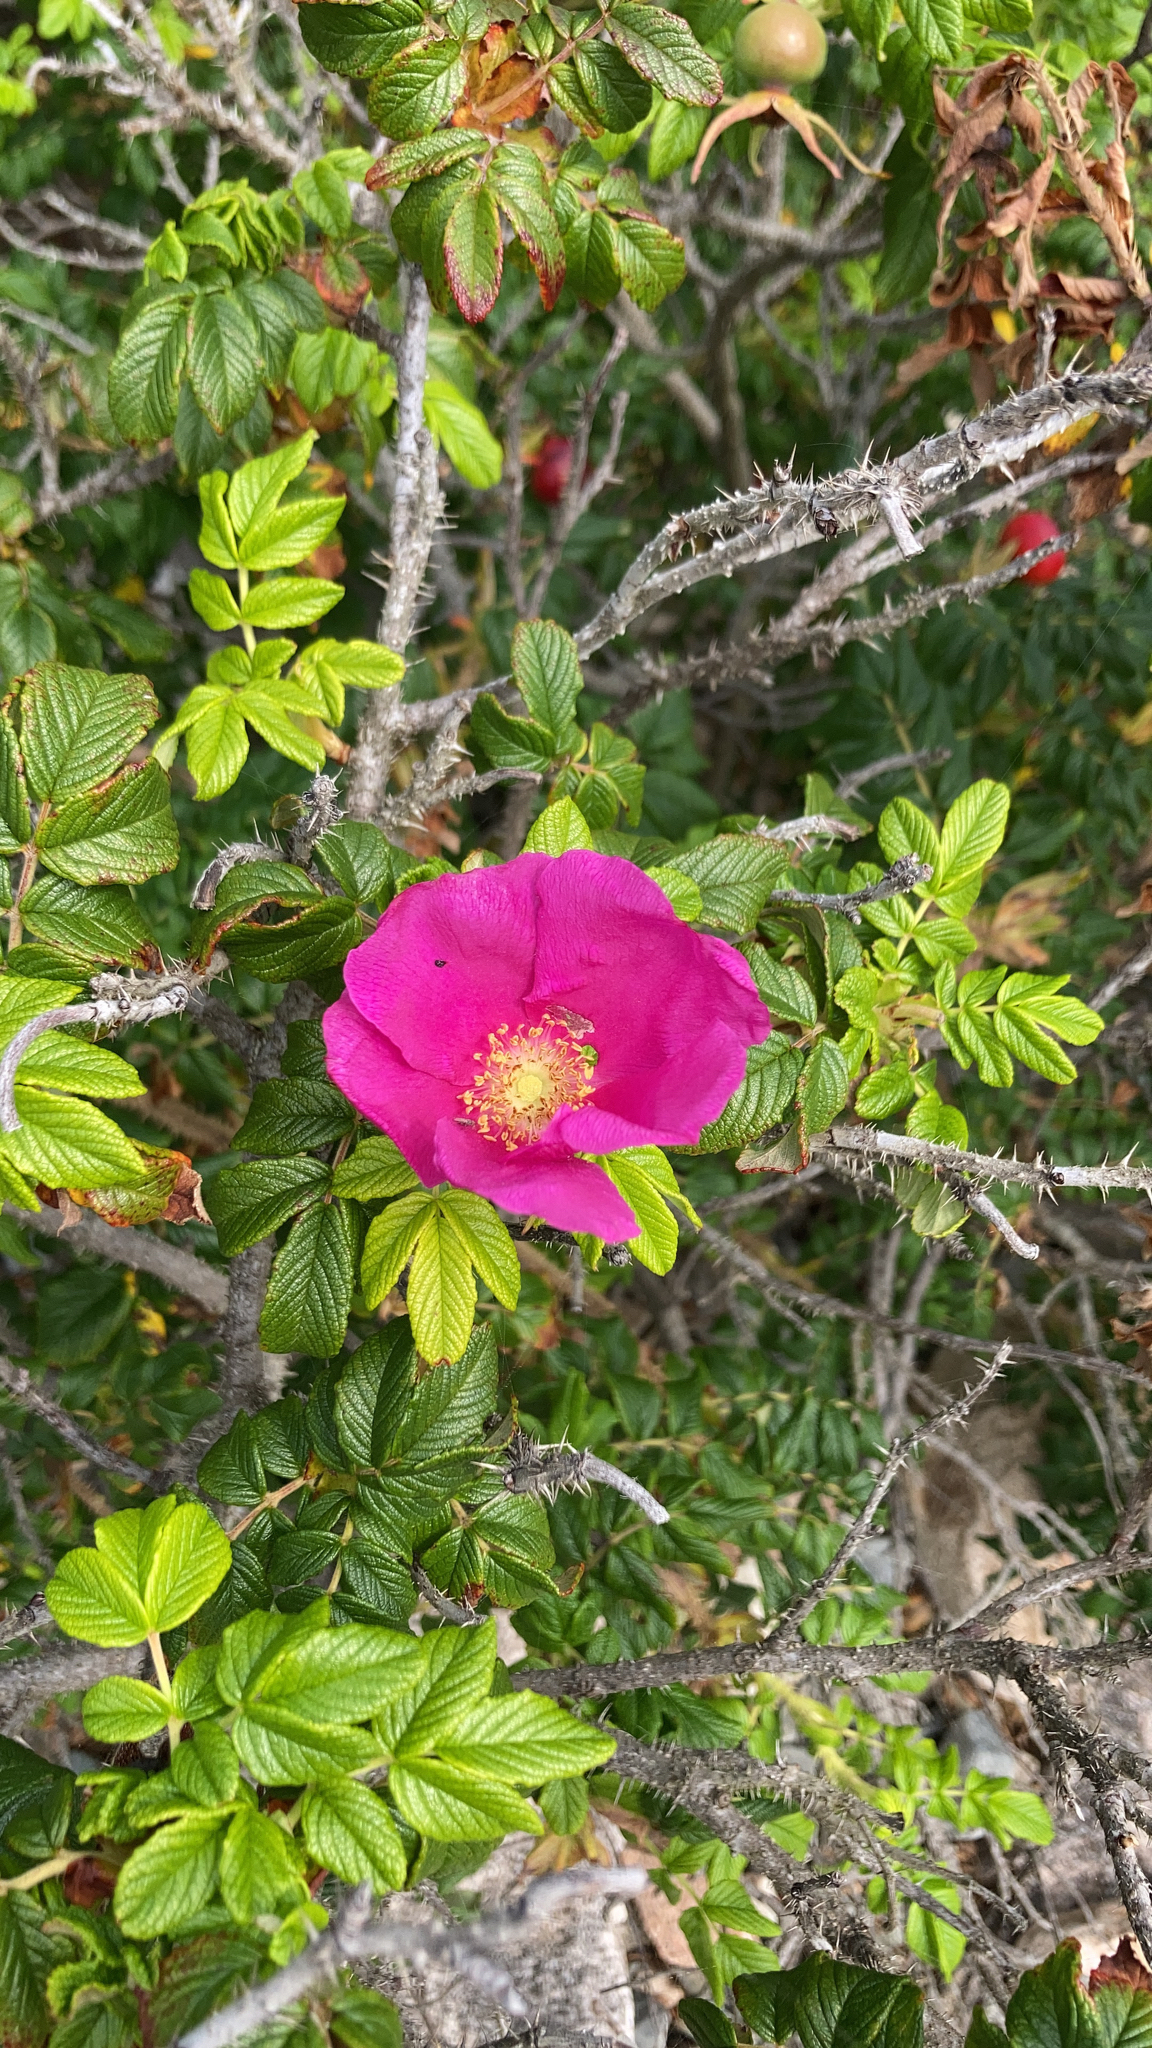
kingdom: Plantae
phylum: Tracheophyta
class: Magnoliopsida
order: Rosales
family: Rosaceae
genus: Rosa
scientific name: Rosa rugosa
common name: Japanese rose
